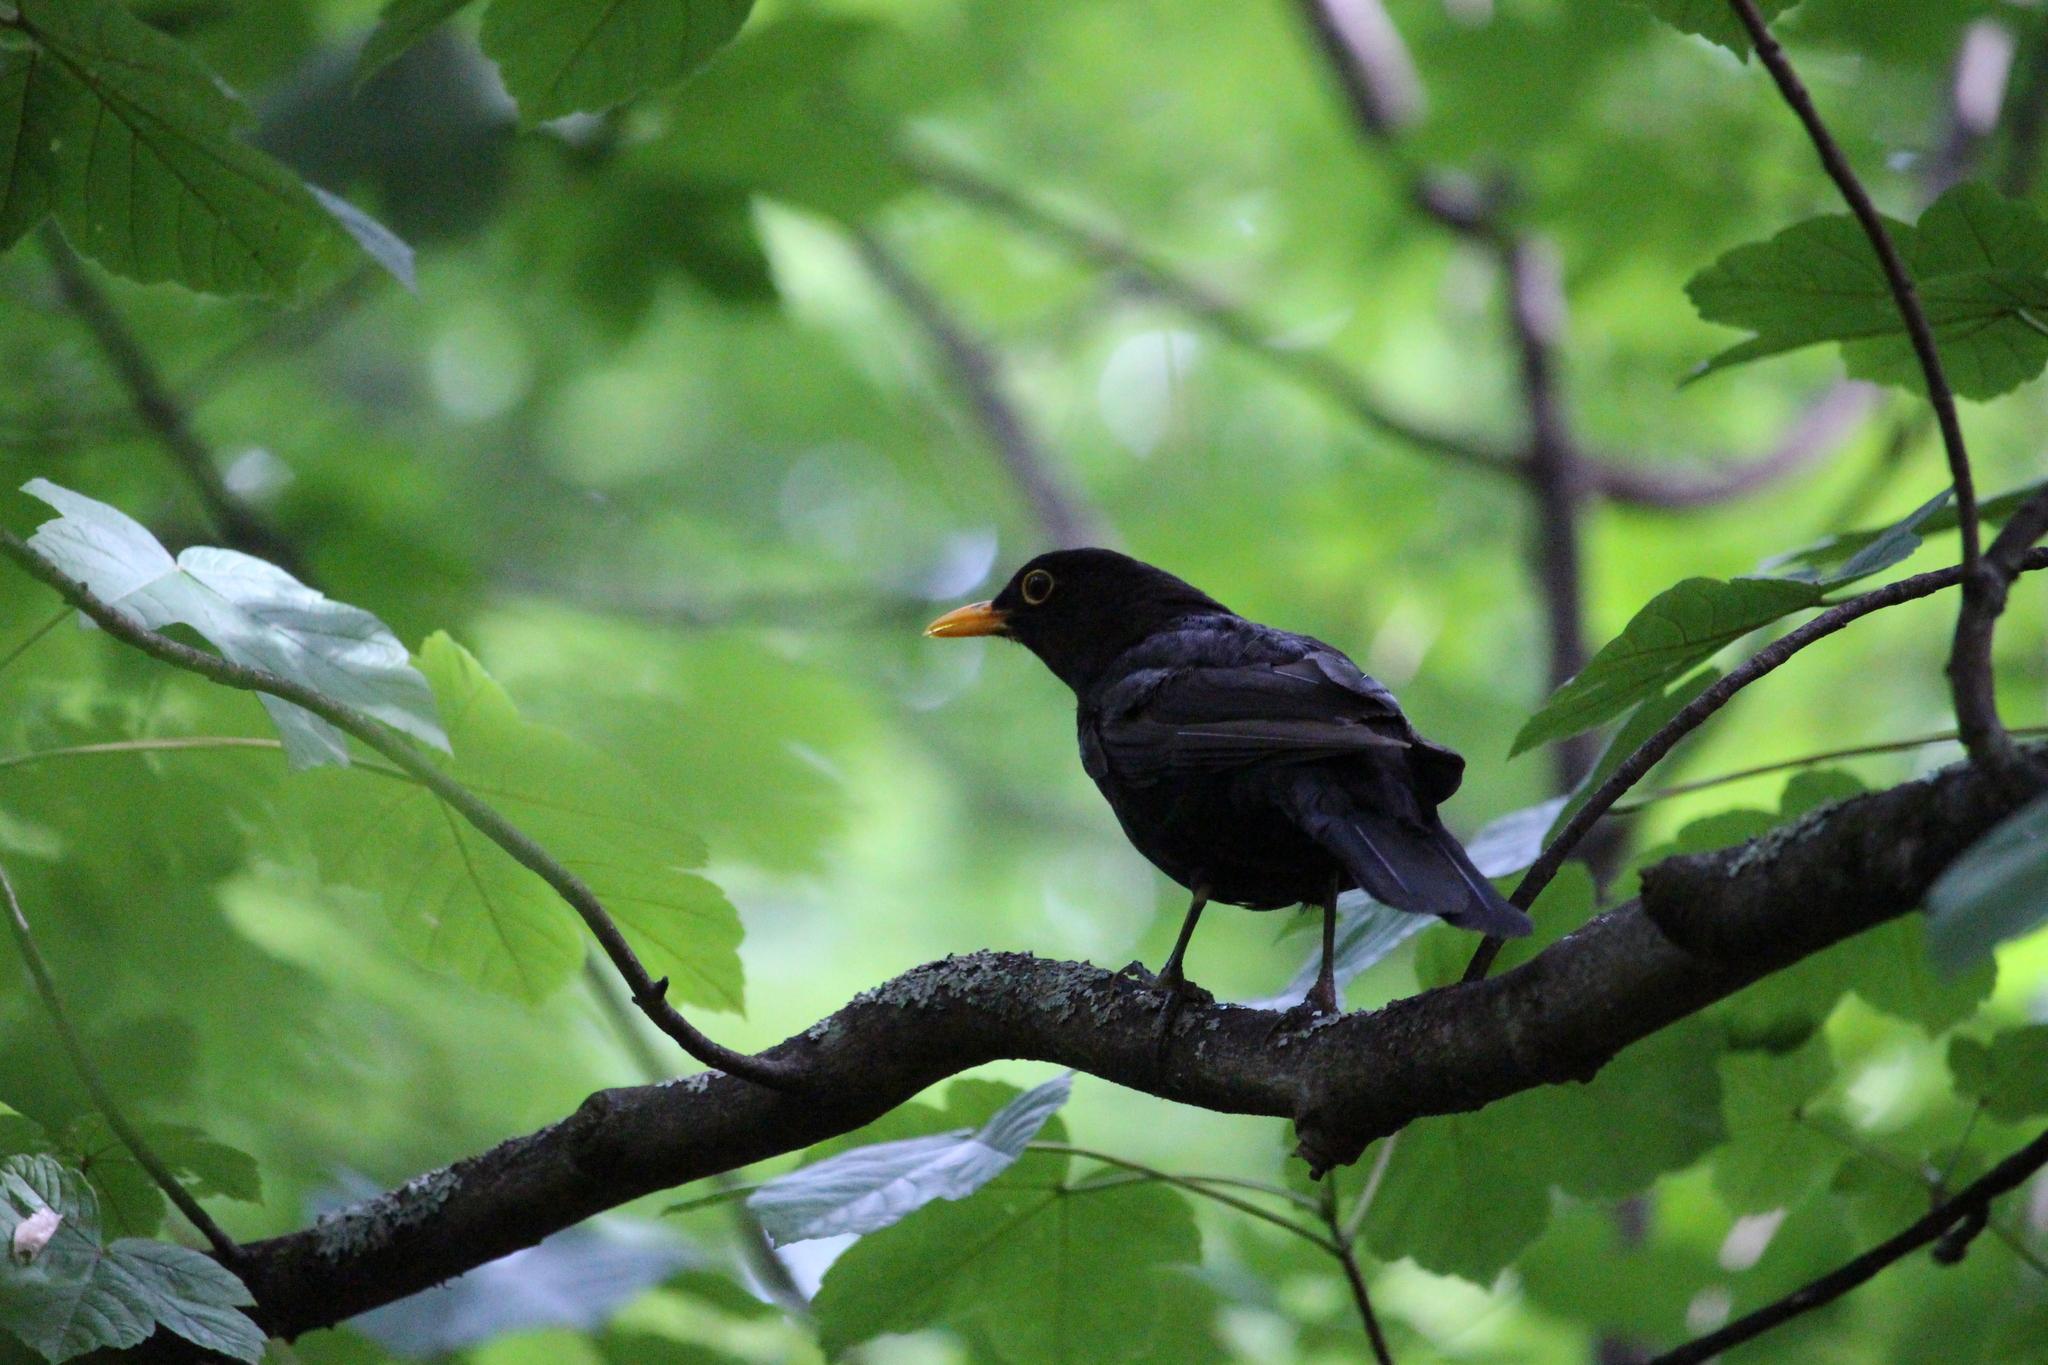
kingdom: Animalia
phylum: Chordata
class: Aves
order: Passeriformes
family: Turdidae
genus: Turdus
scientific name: Turdus merula
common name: Common blackbird
